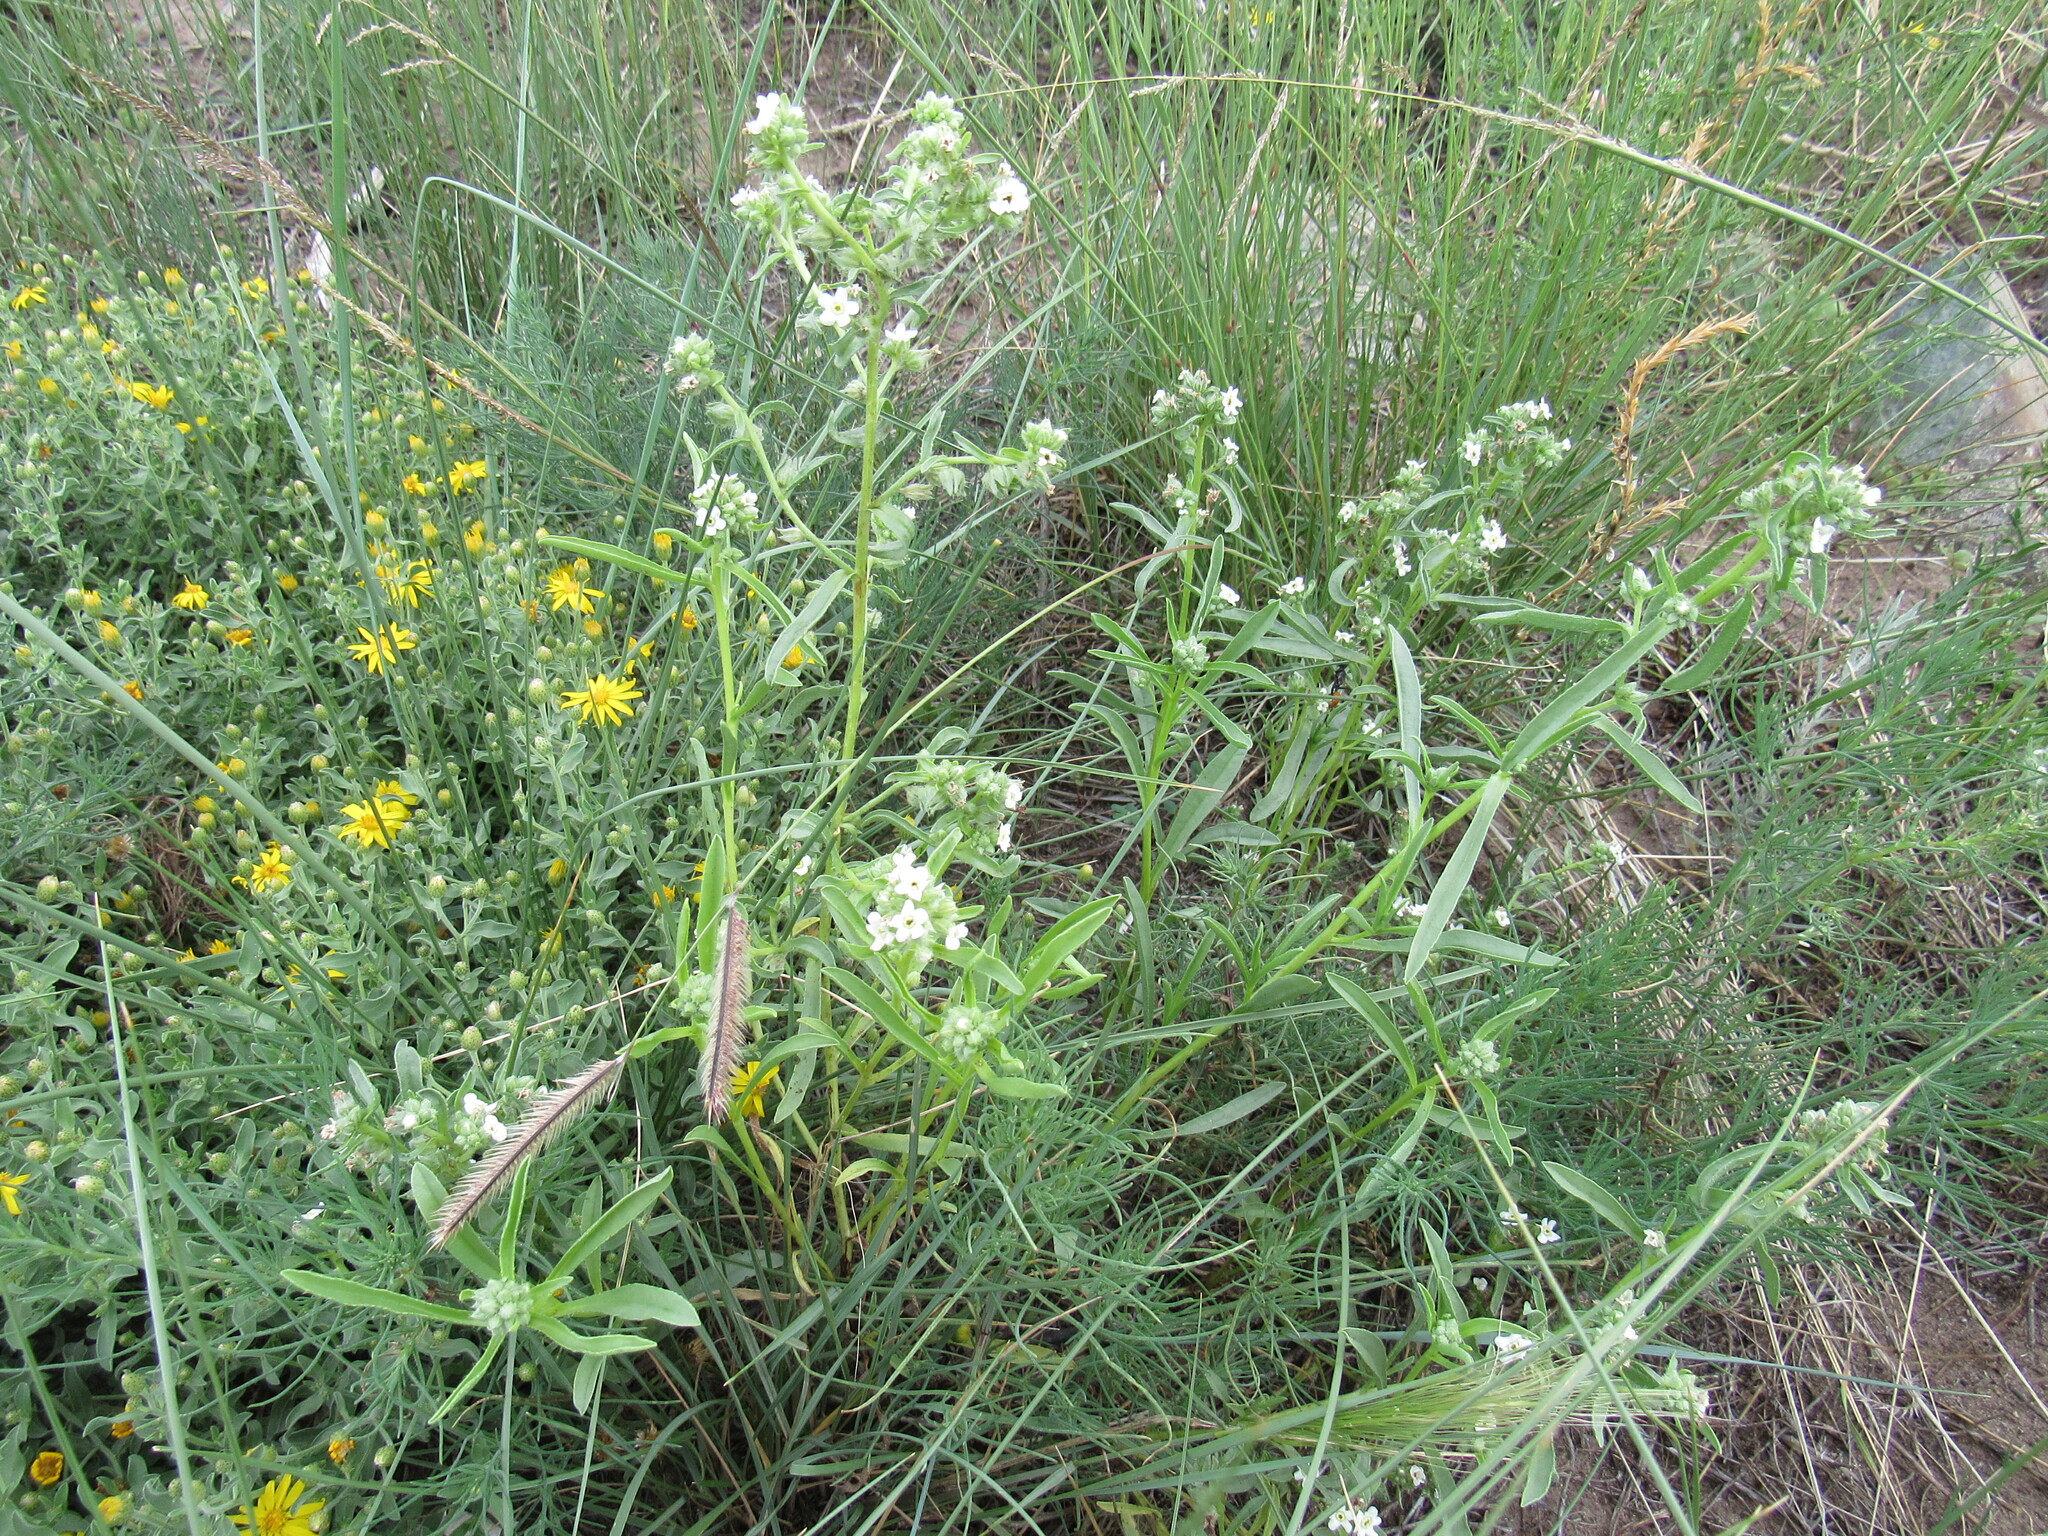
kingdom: Plantae
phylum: Tracheophyta
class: Magnoliopsida
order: Boraginales
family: Boraginaceae
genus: Oreocarya
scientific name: Oreocarya suffruticosa
